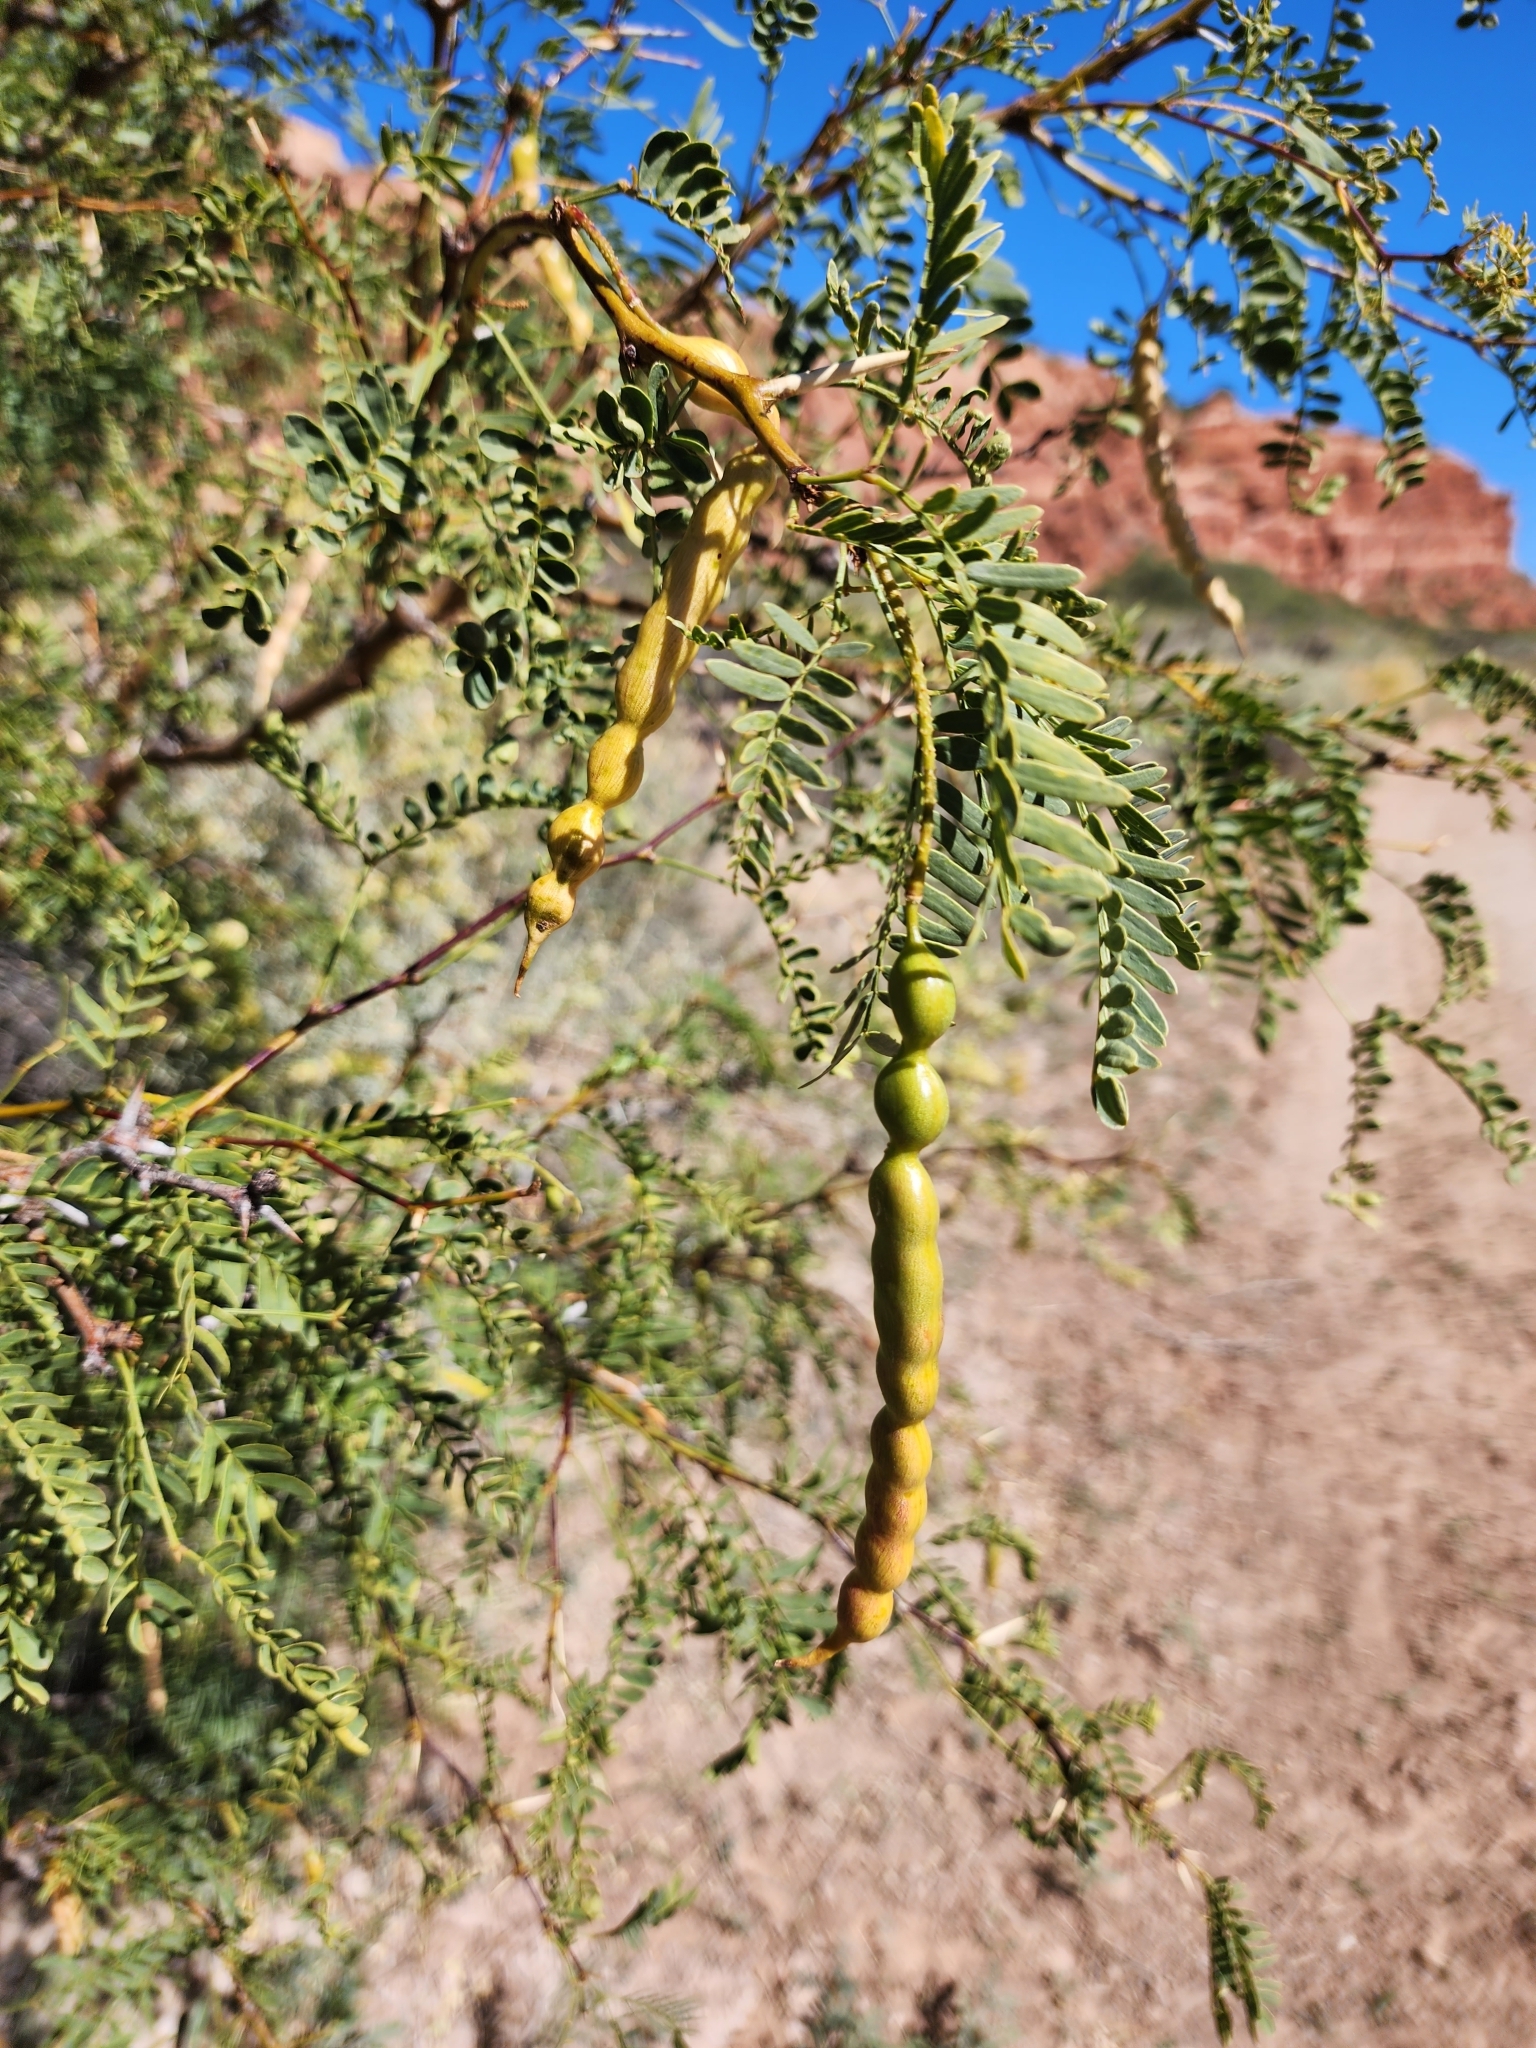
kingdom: Plantae
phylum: Tracheophyta
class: Magnoliopsida
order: Fabales
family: Fabaceae
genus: Prosopis
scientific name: Prosopis pubescens
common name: Screw-bean
